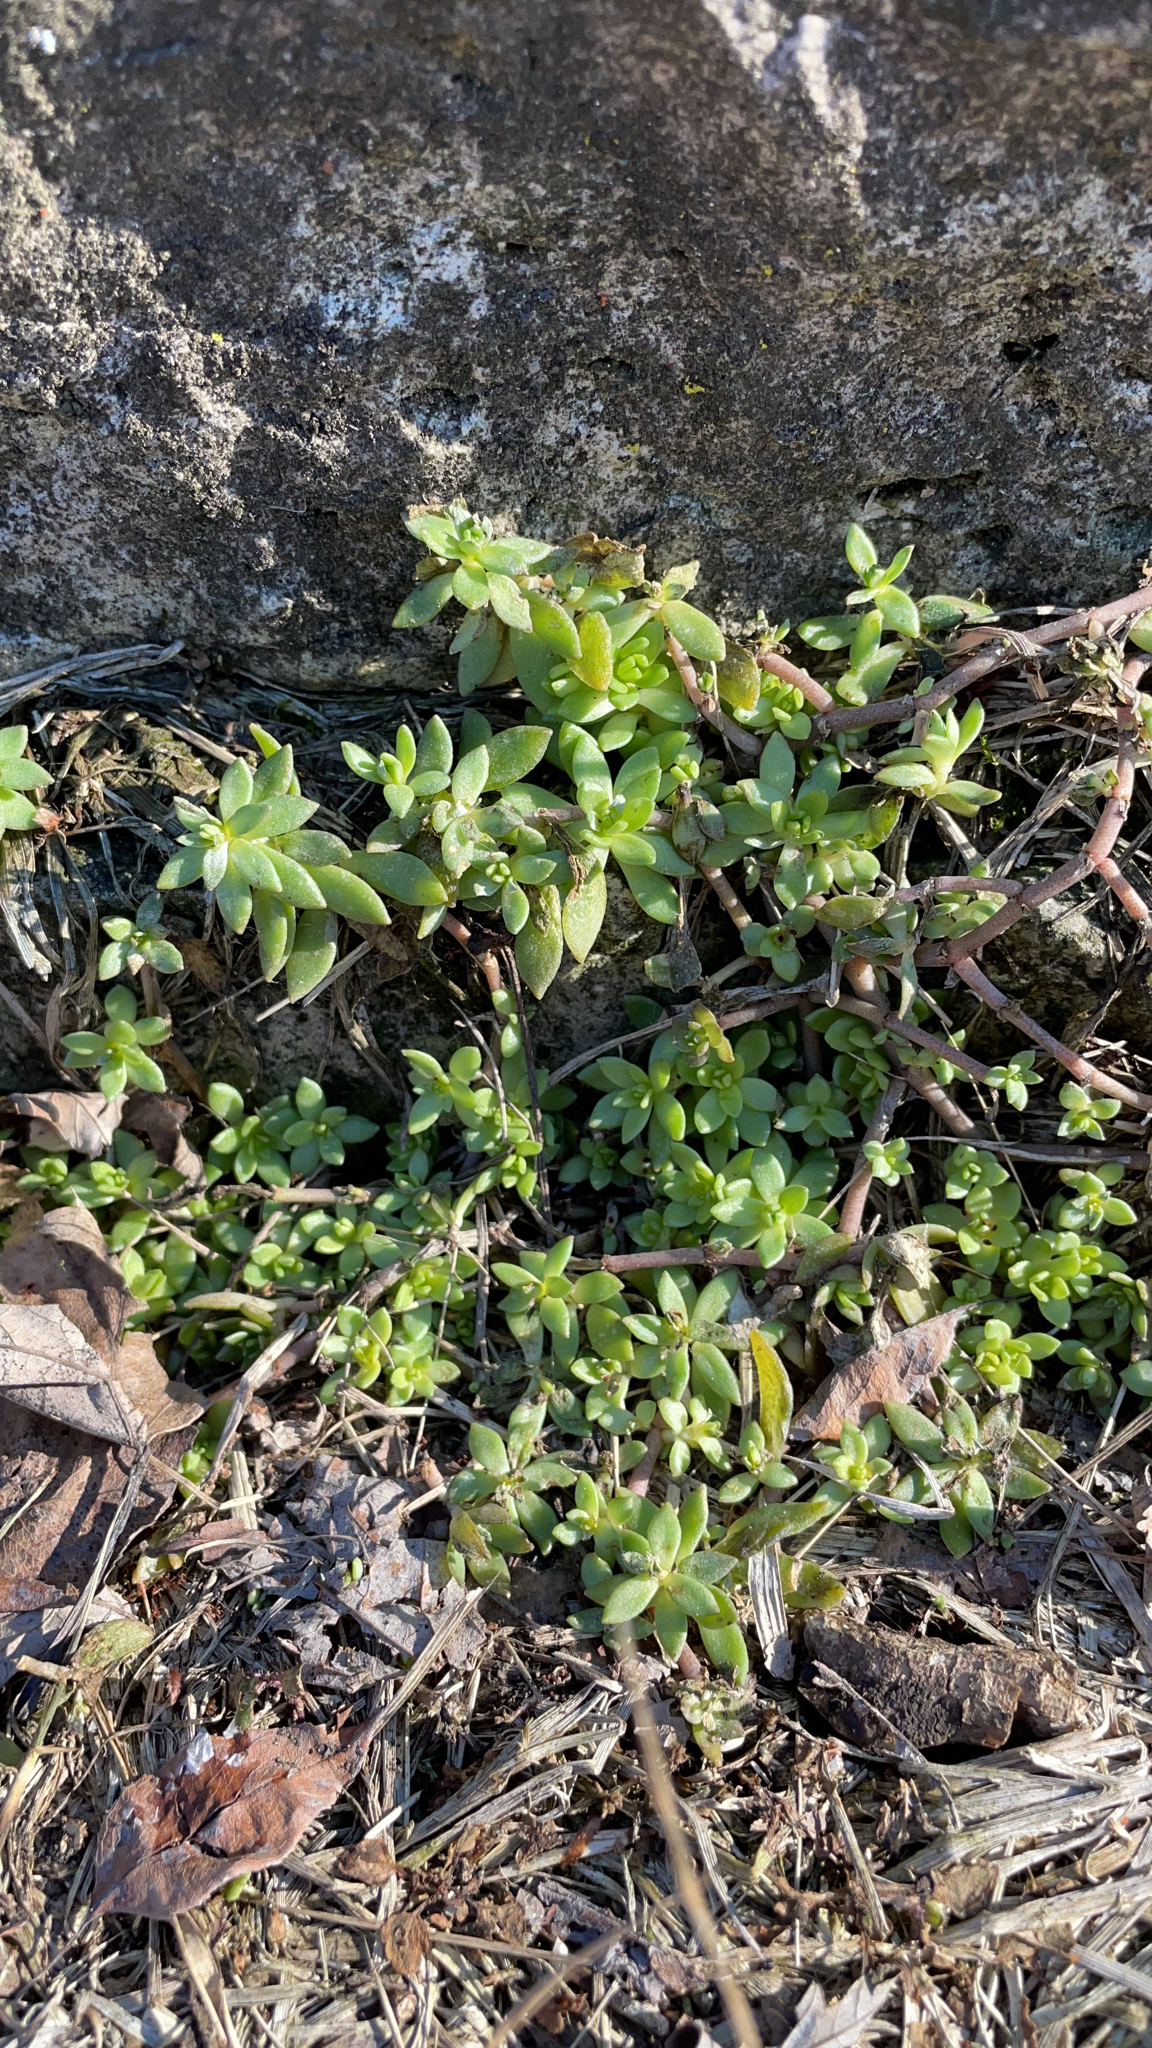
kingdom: Plantae
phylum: Tracheophyta
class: Magnoliopsida
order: Saxifragales
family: Crassulaceae
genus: Sedum
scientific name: Sedum sarmentosum
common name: Stringy stonecrop
